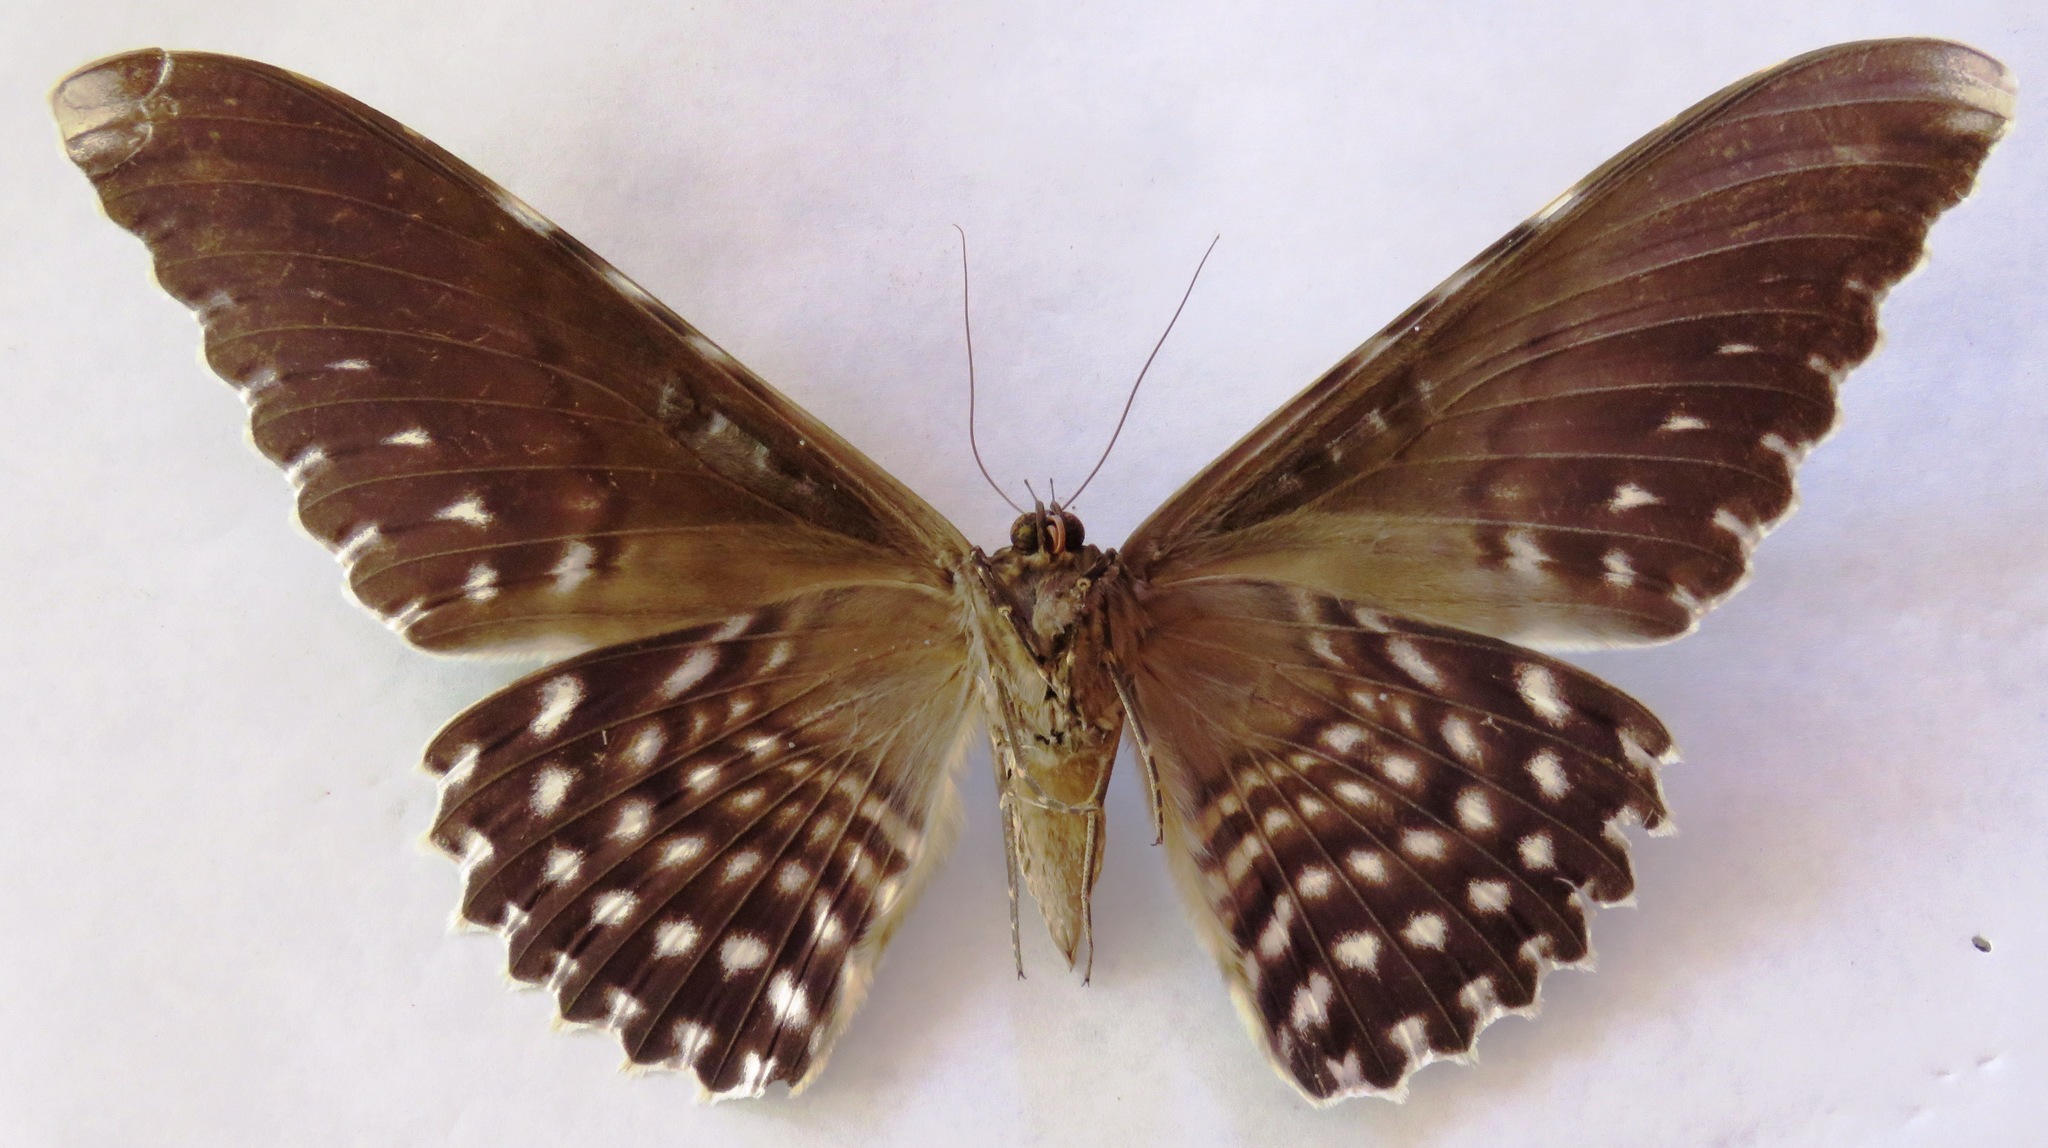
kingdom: Animalia
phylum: Arthropoda
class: Insecta
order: Lepidoptera
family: Erebidae
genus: Thysania
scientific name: Thysania agrippina
